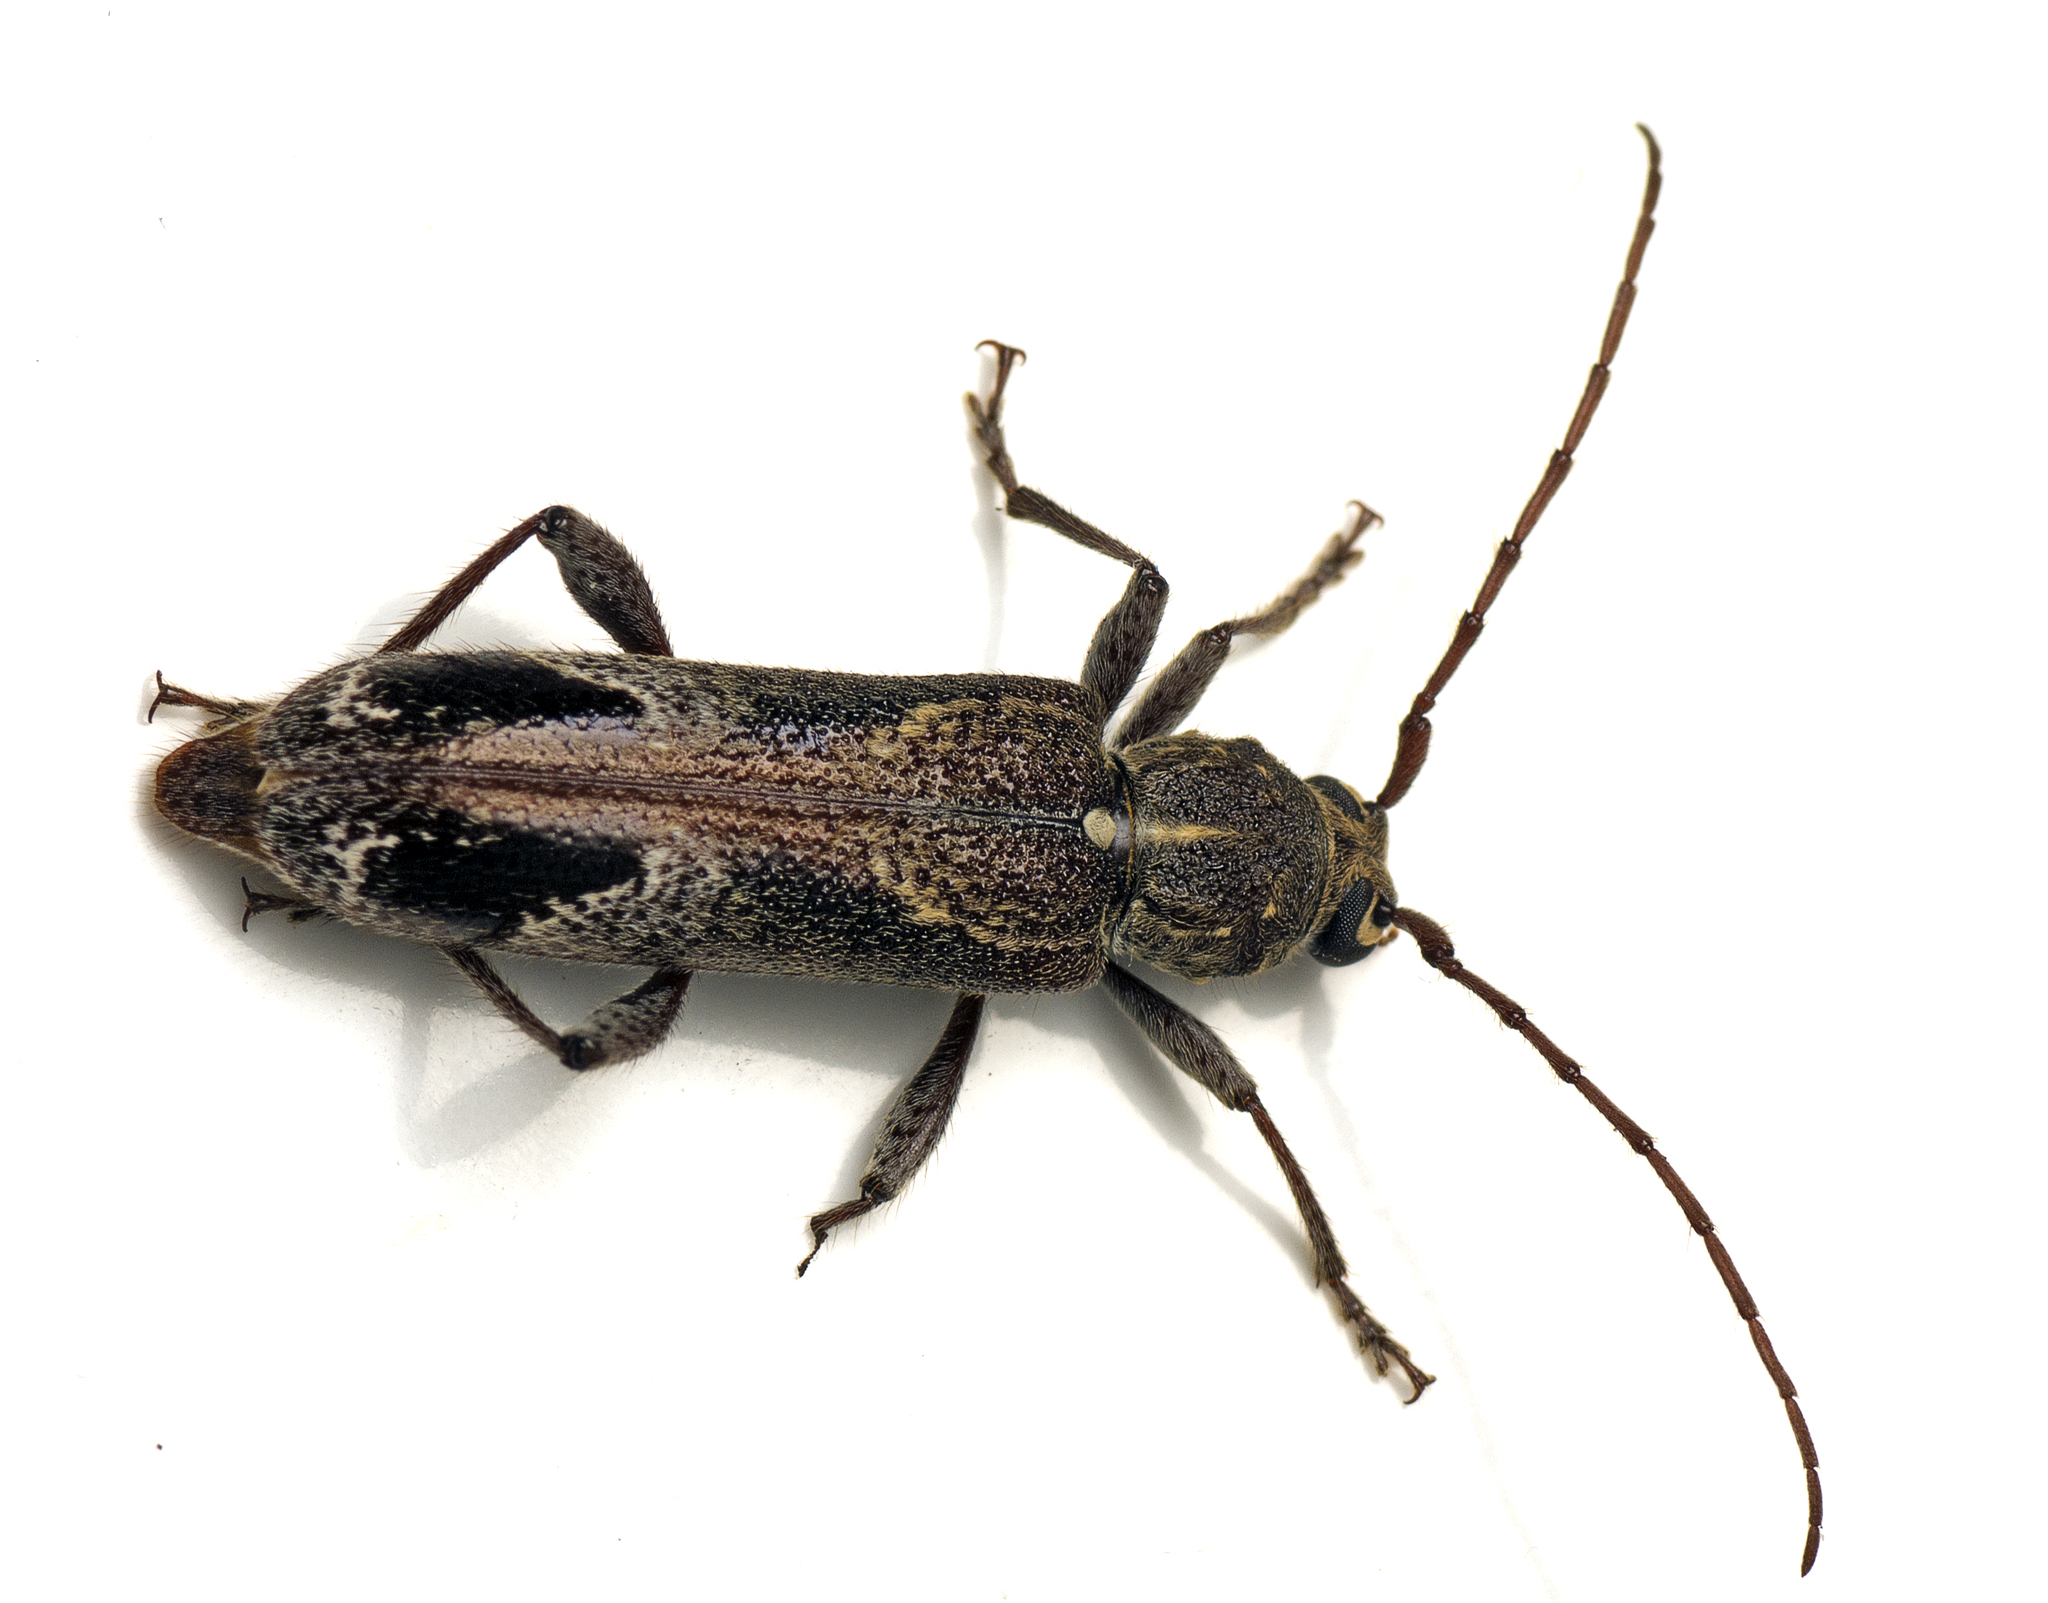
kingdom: Animalia
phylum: Arthropoda
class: Insecta
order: Coleoptera
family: Cerambycidae
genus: Phacodes
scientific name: Phacodes personatus
